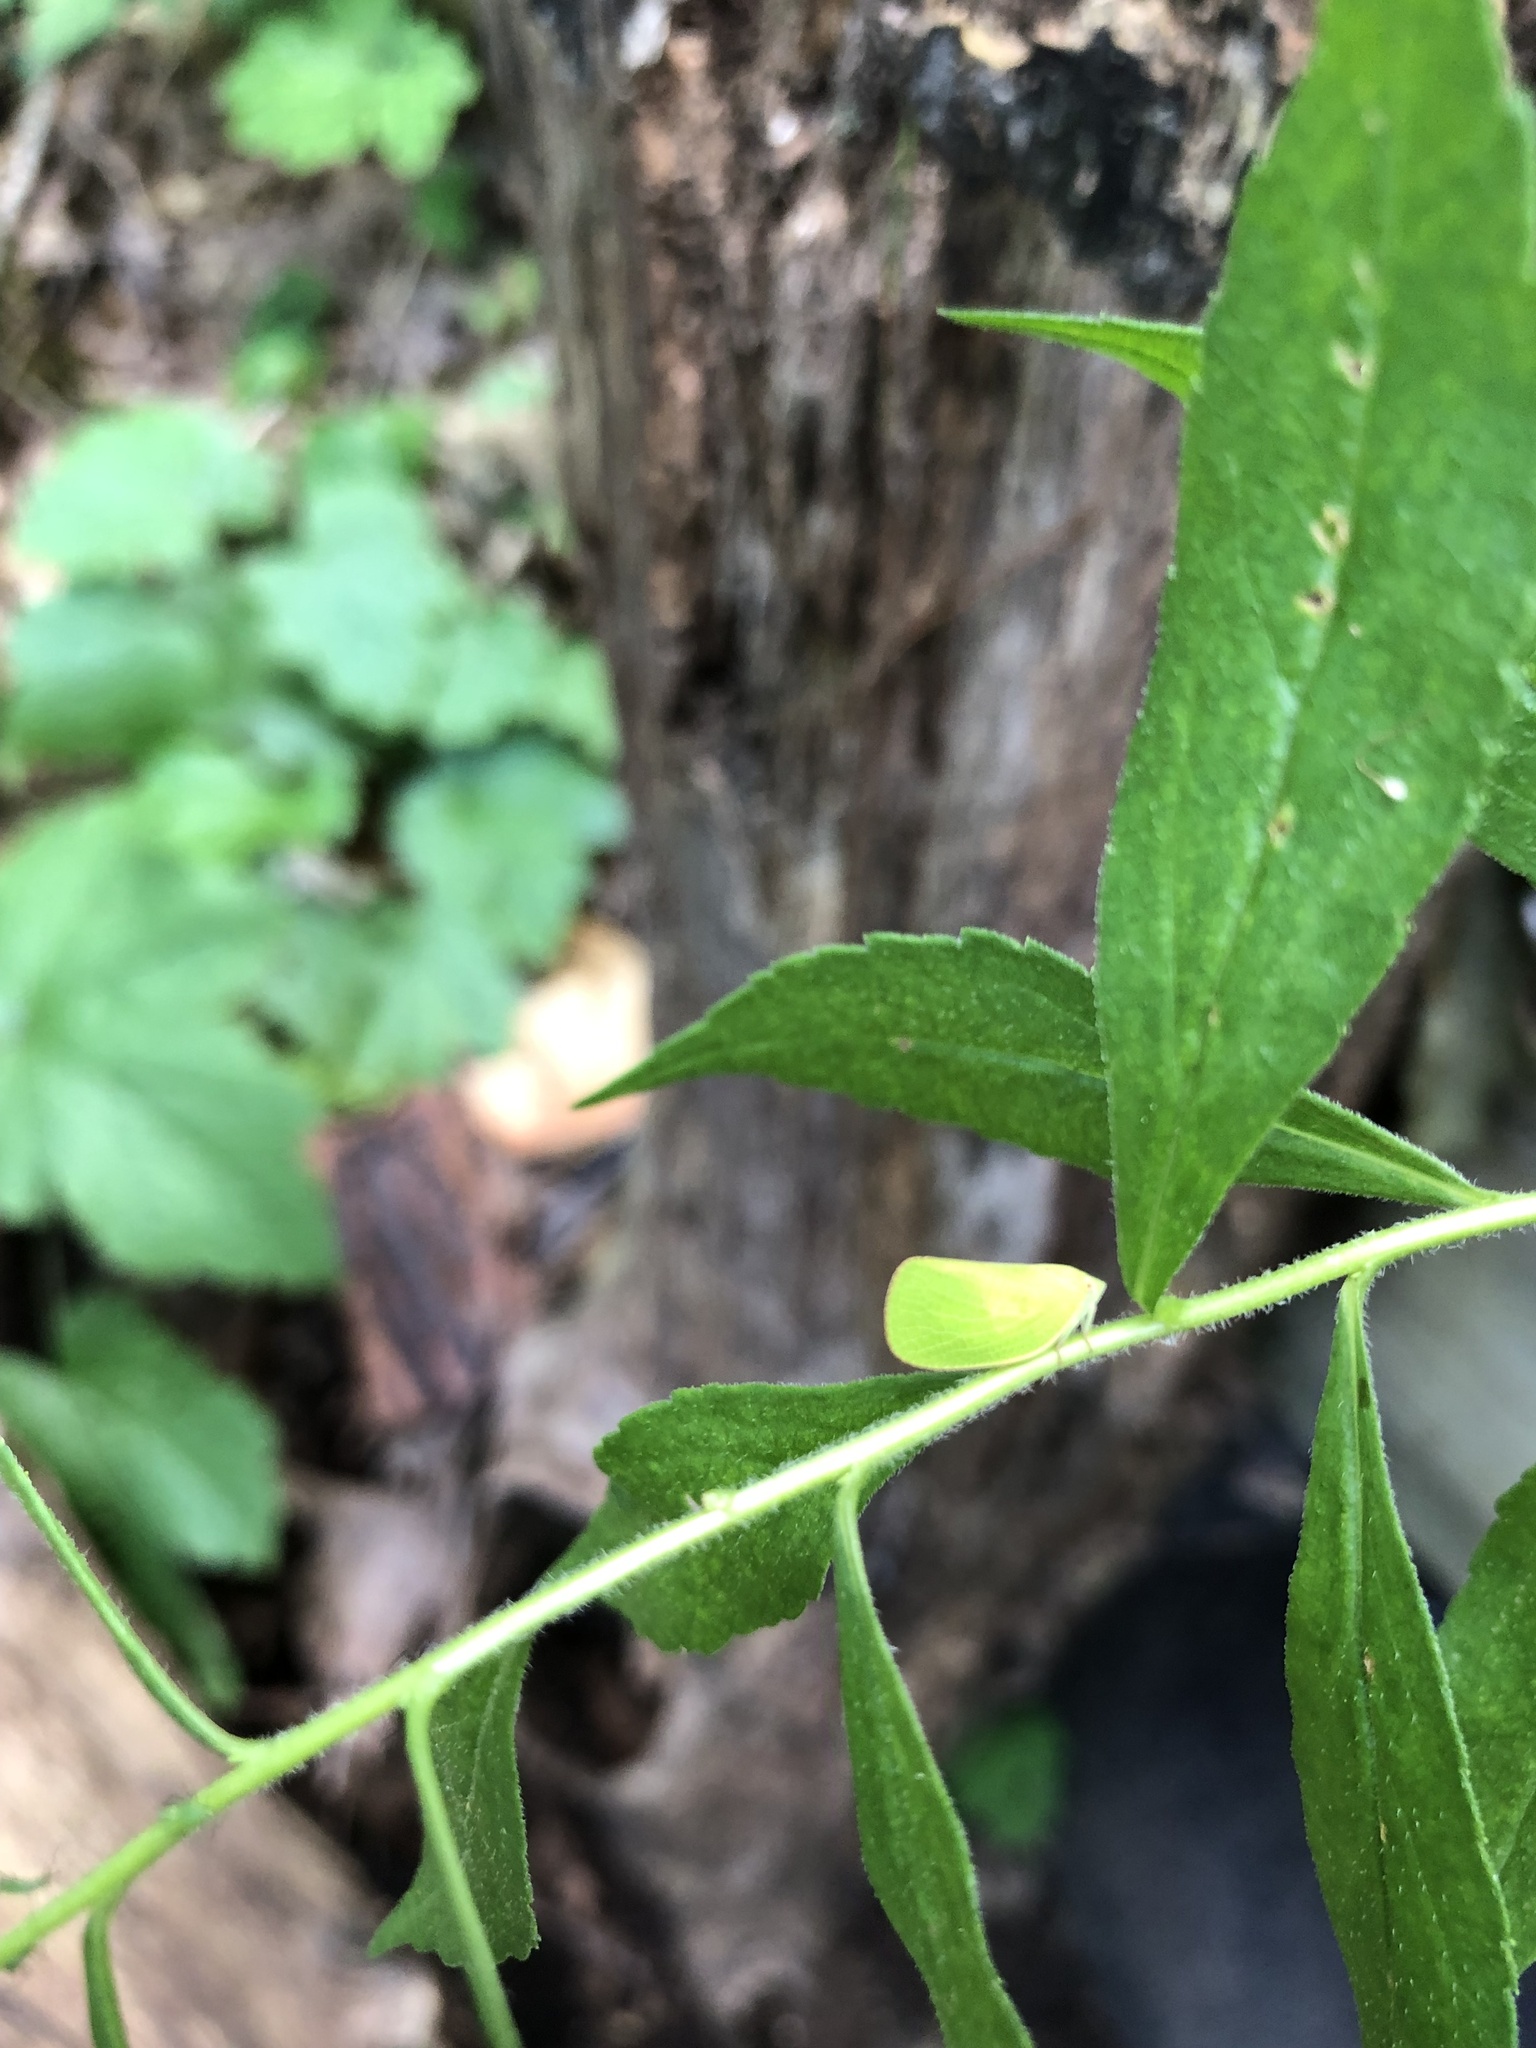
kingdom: Animalia
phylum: Arthropoda
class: Insecta
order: Hemiptera
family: Acanaloniidae
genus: Acanalonia
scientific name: Acanalonia conica
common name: Green cone-headed planthopper
